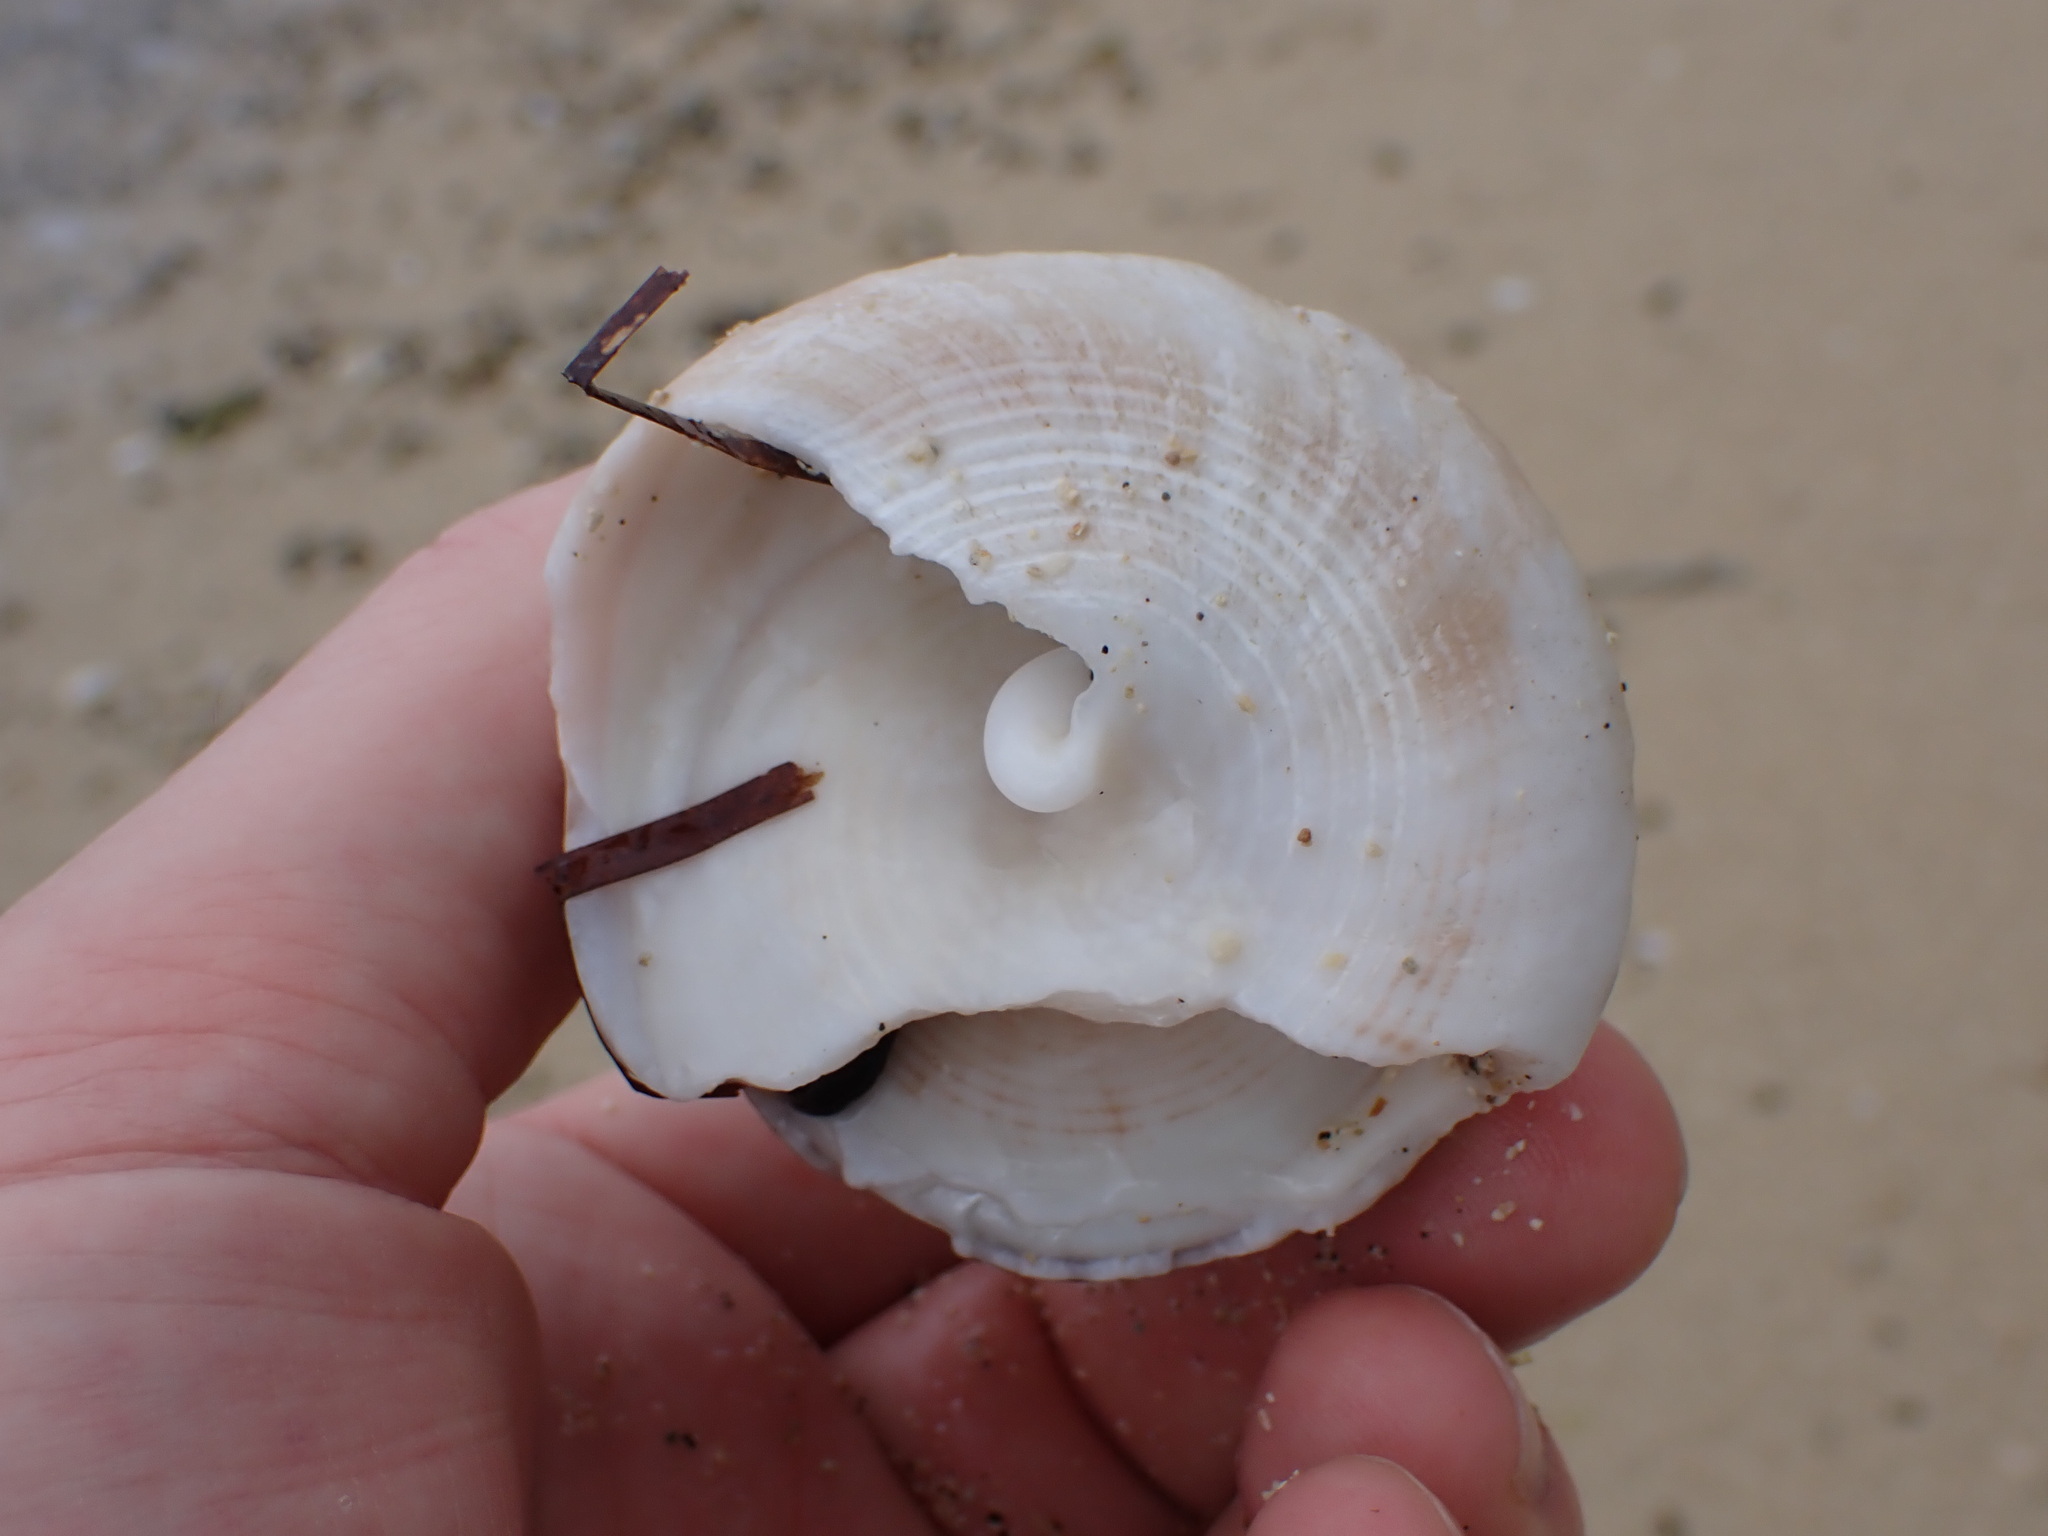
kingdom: Animalia
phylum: Mollusca
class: Gastropoda
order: Trochida
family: Tegulidae
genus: Tectus
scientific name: Tectus pyramis
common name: Pyramid top
